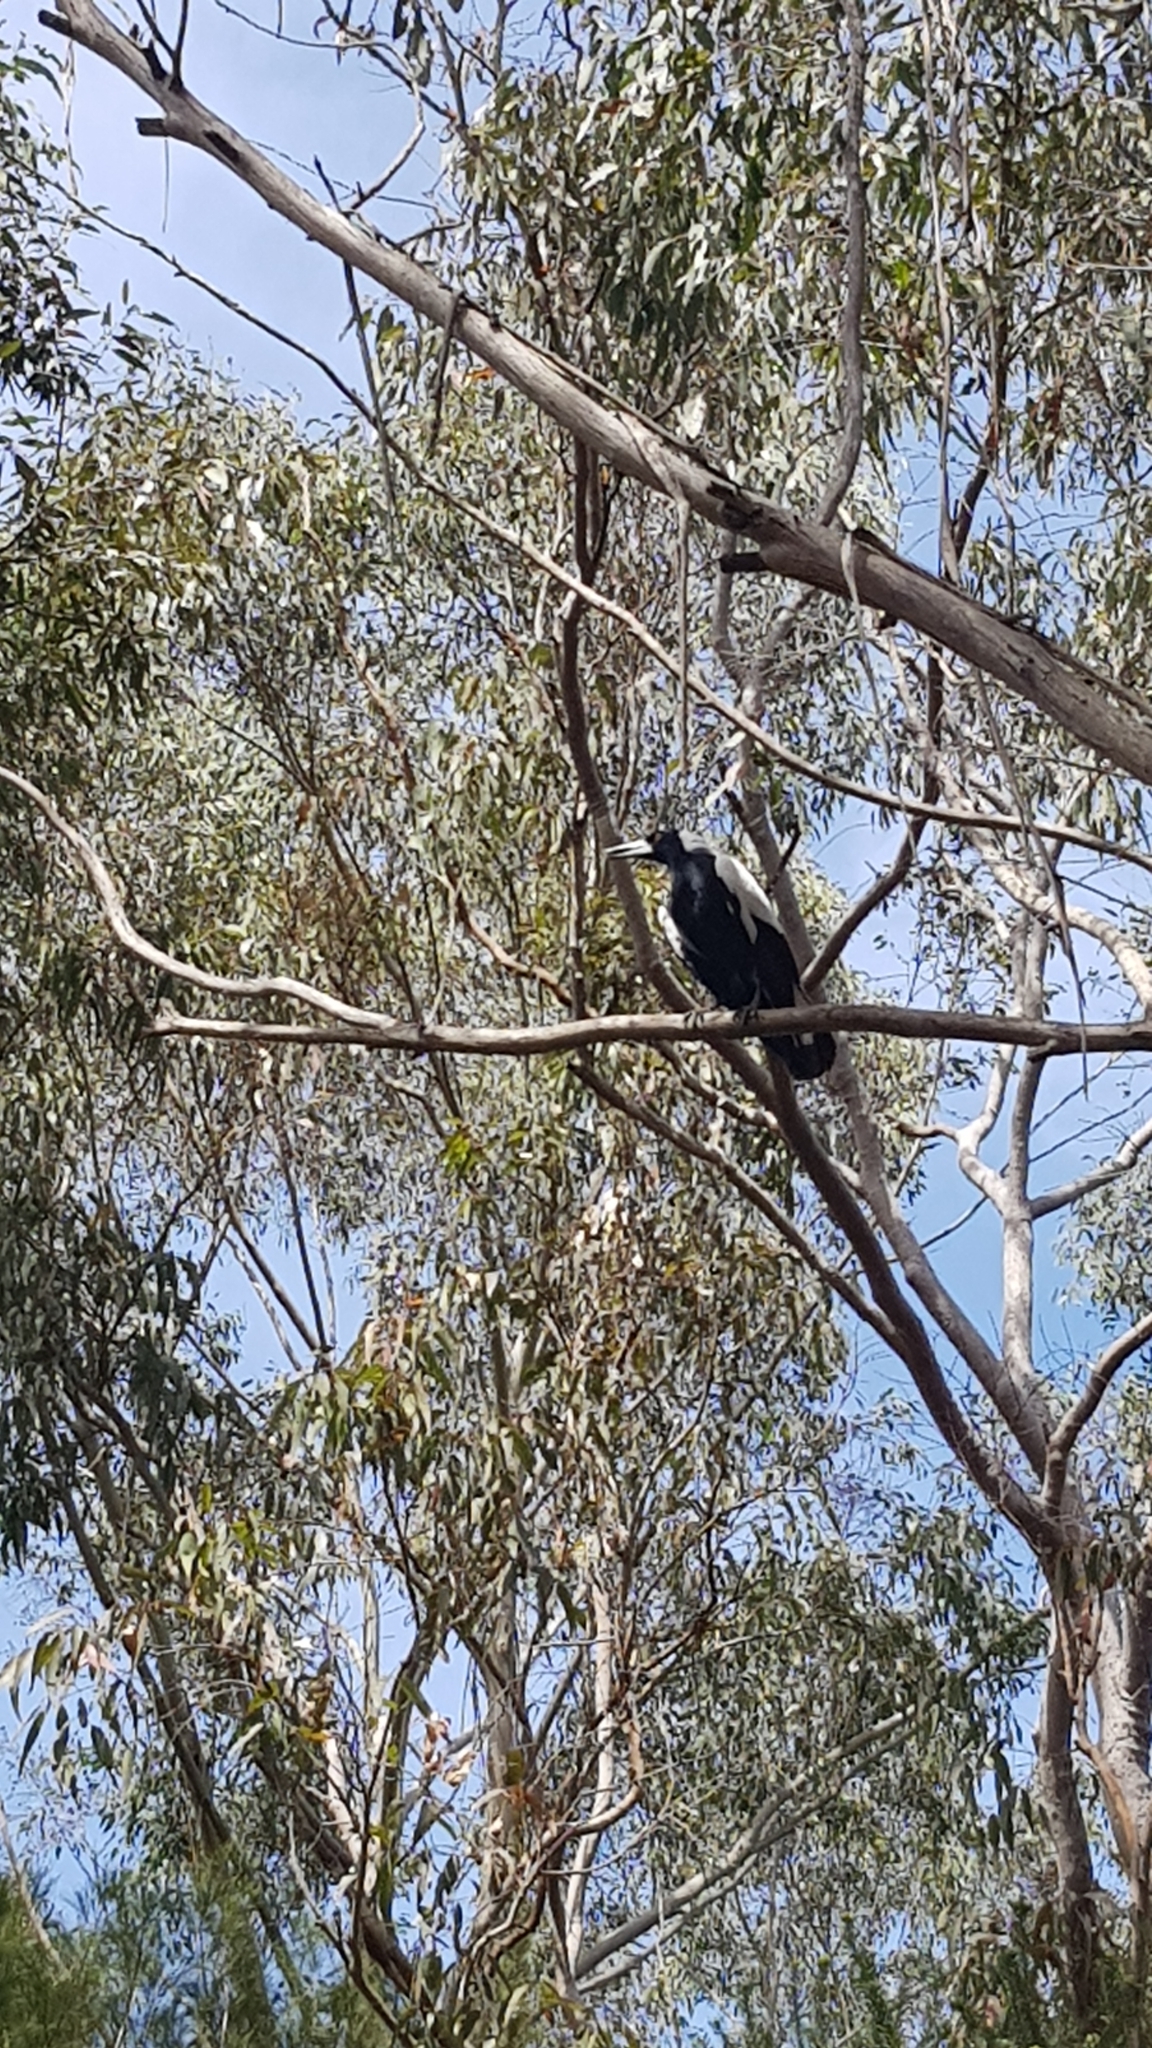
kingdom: Animalia
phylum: Chordata
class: Aves
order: Passeriformes
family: Cracticidae
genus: Gymnorhina
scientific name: Gymnorhina tibicen
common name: Australian magpie
